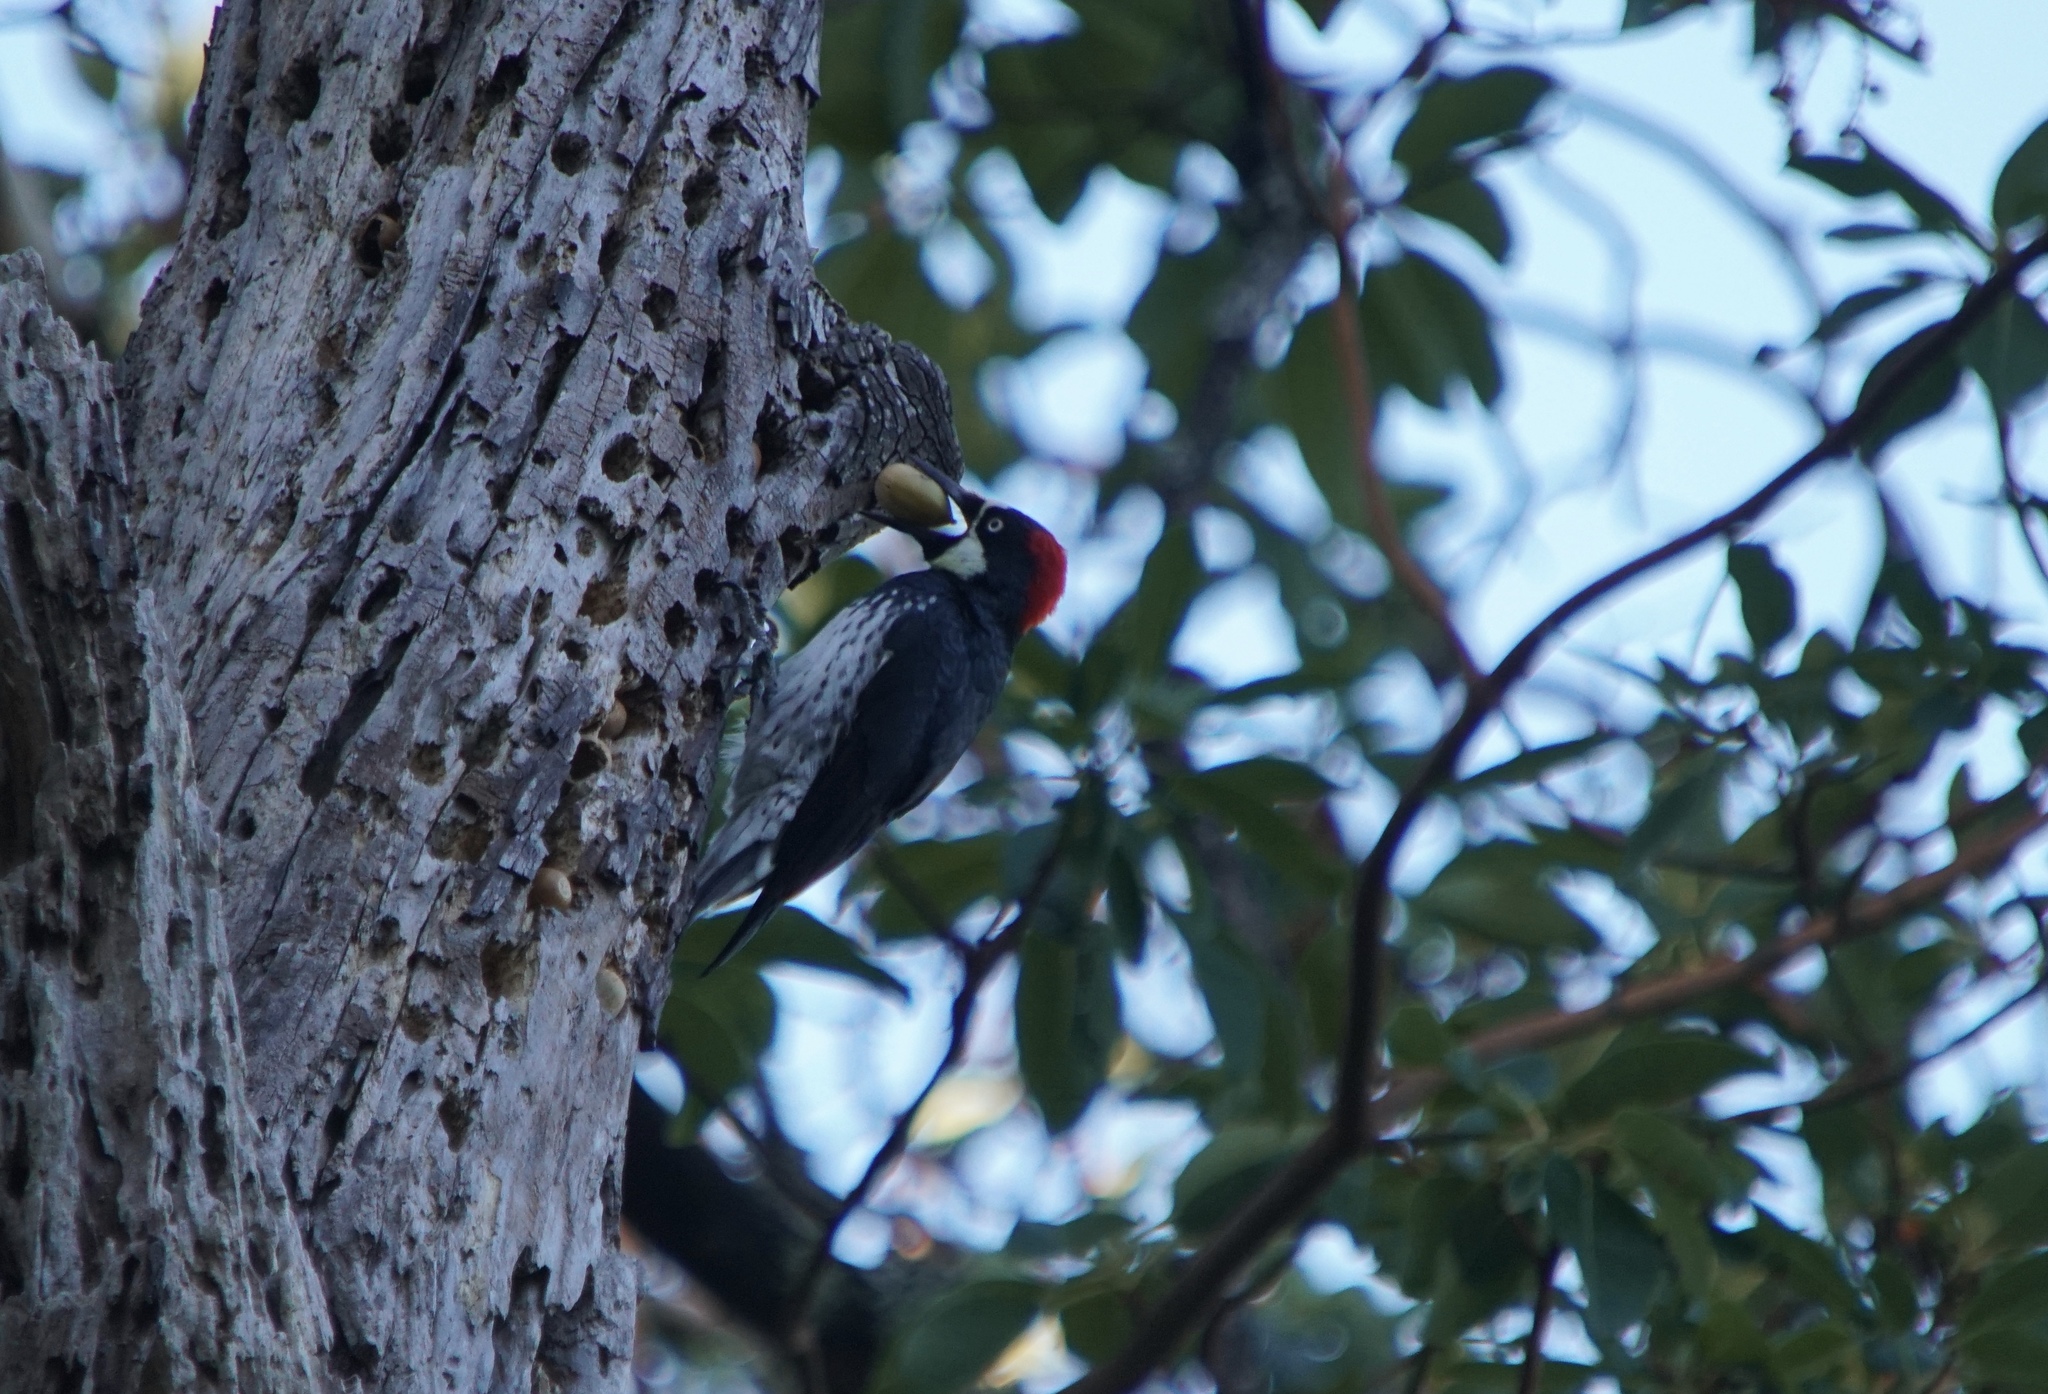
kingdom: Animalia
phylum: Chordata
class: Aves
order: Piciformes
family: Picidae
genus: Melanerpes
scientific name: Melanerpes formicivorus
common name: Acorn woodpecker
